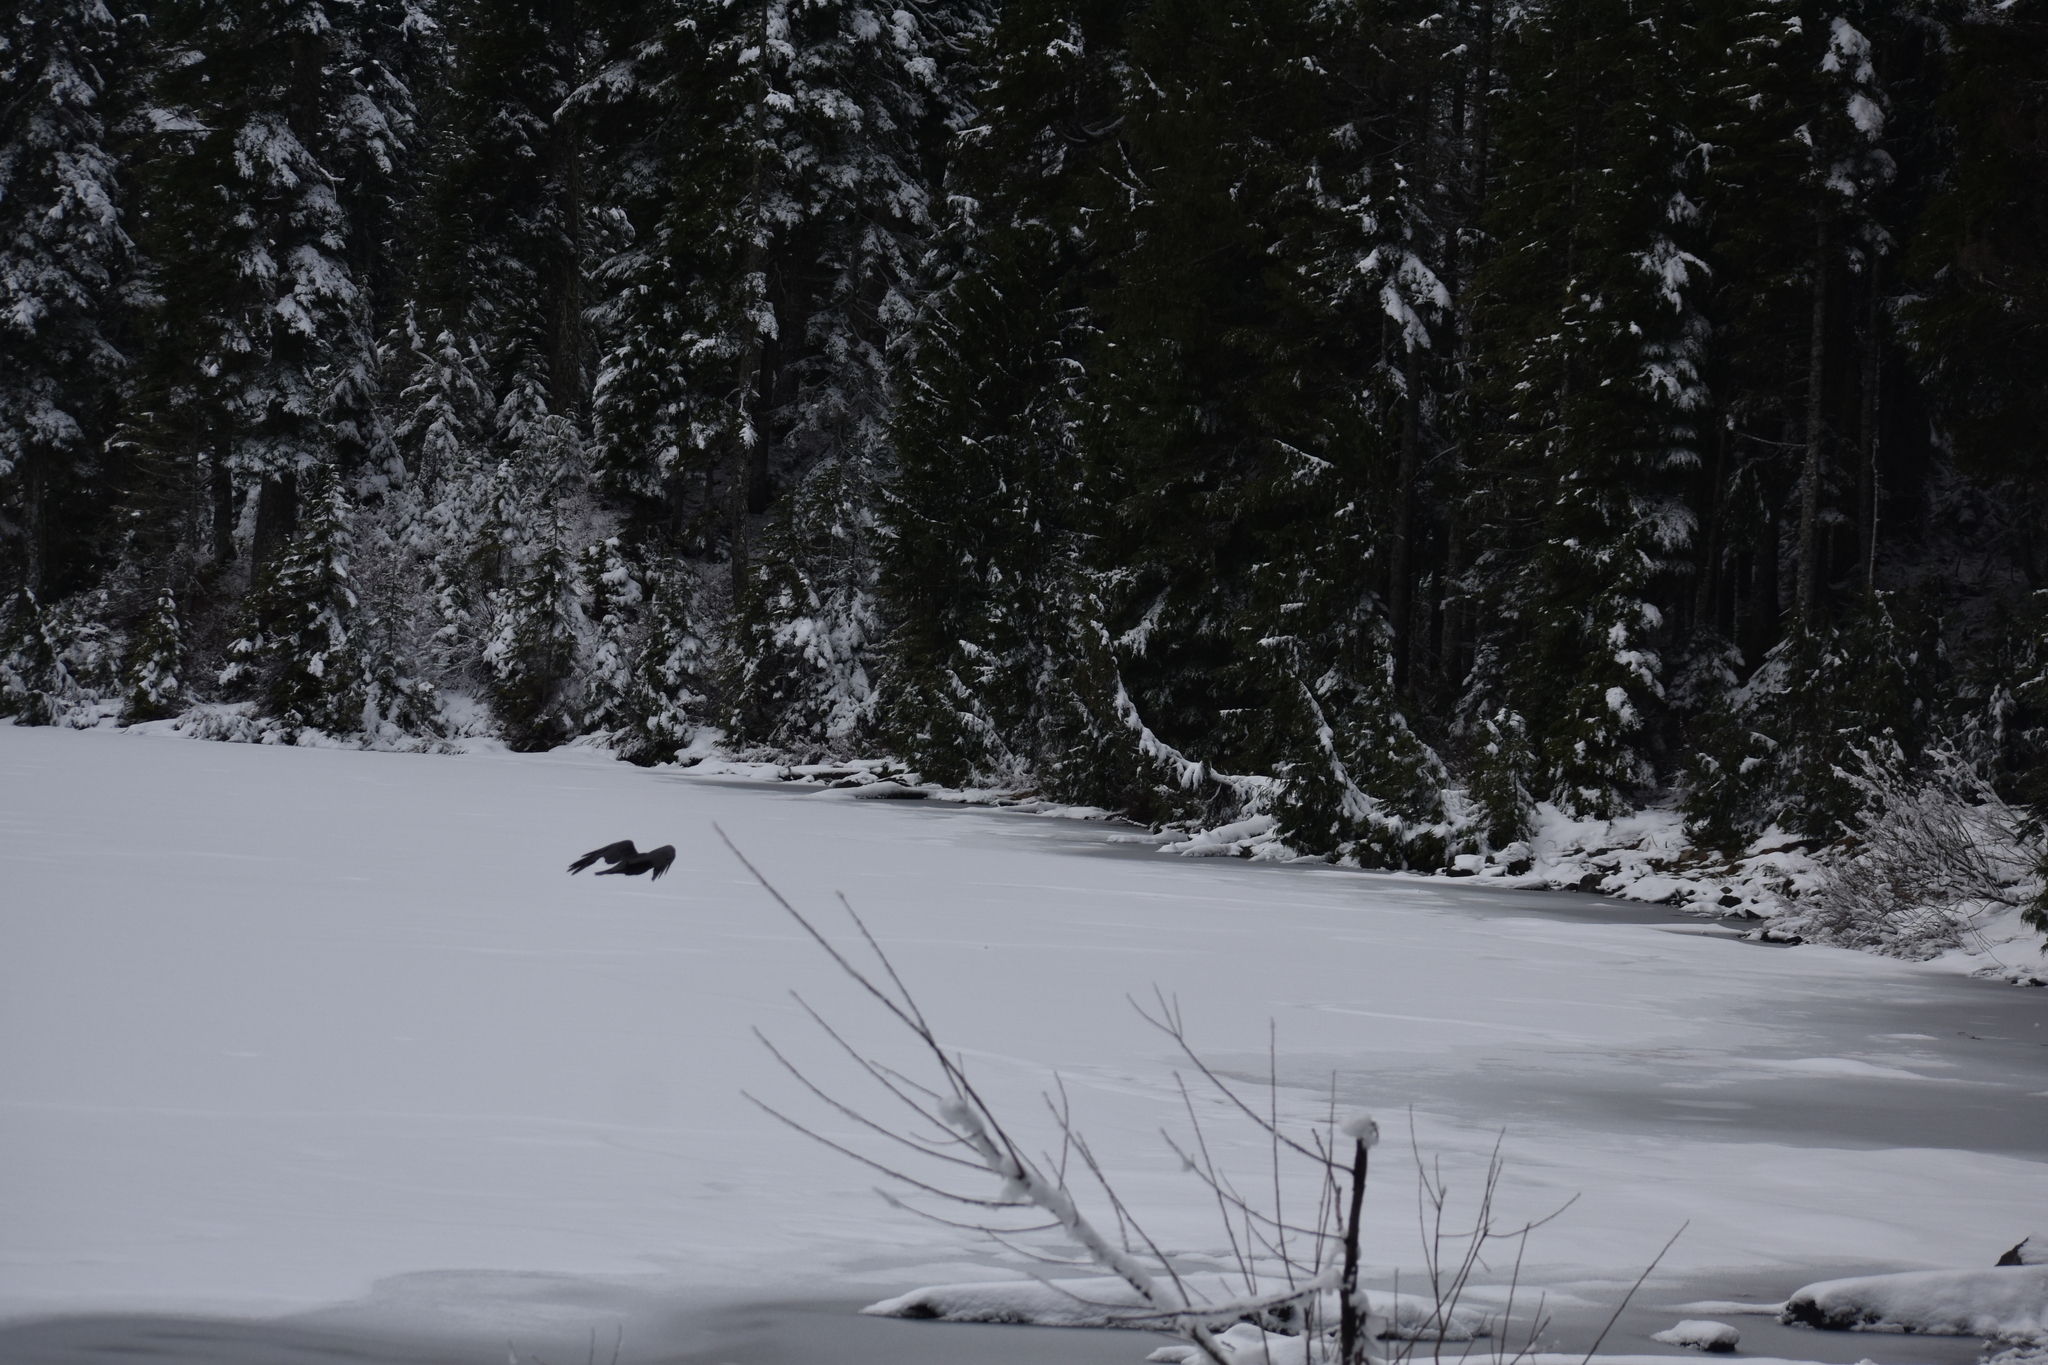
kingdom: Animalia
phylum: Chordata
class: Aves
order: Passeriformes
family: Corvidae
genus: Corvus
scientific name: Corvus corax
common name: Common raven
